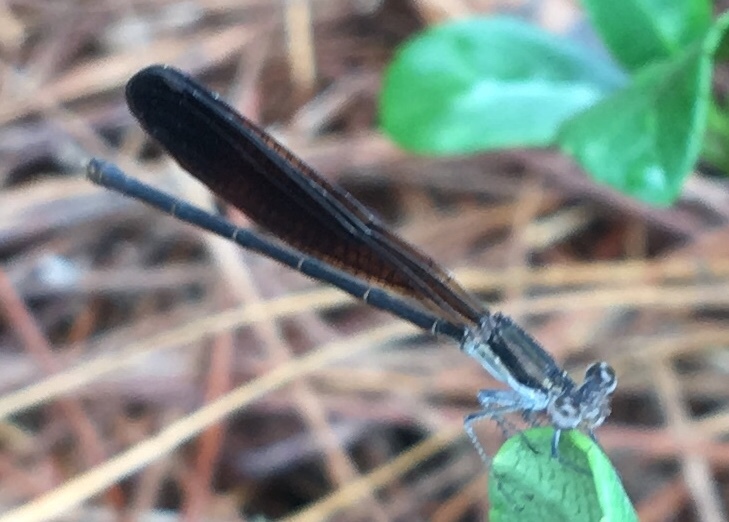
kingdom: Animalia
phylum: Arthropoda
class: Insecta
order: Odonata
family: Coenagrionidae
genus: Argia
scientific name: Argia fumipennis
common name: Variable dancer
